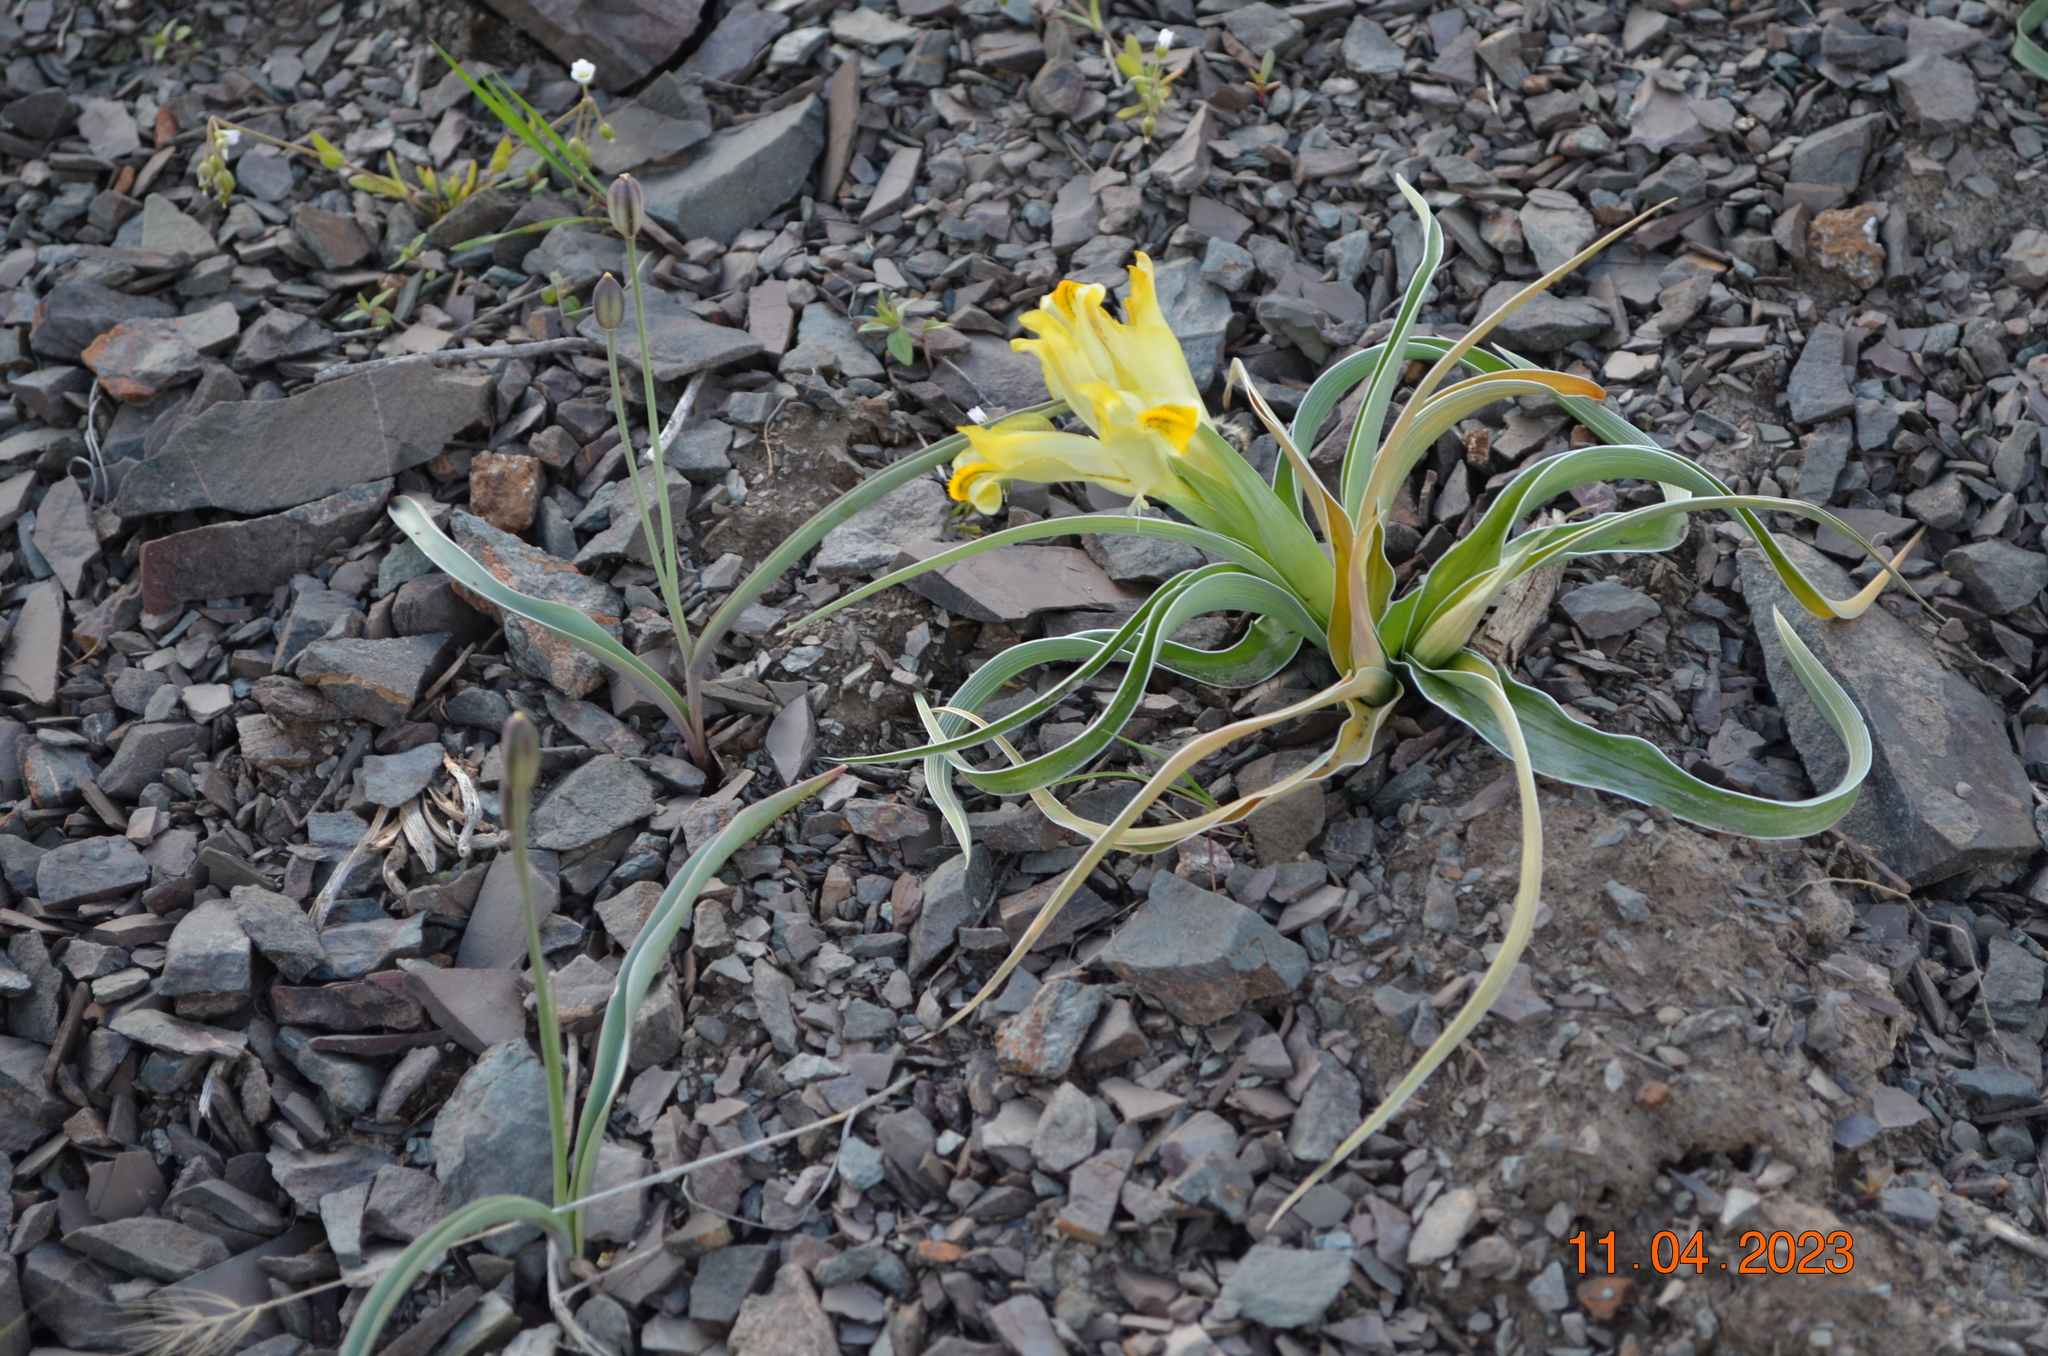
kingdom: Plantae
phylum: Tracheophyta
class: Liliopsida
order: Asparagales
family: Iridaceae
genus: Iris
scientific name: Iris orchioides
